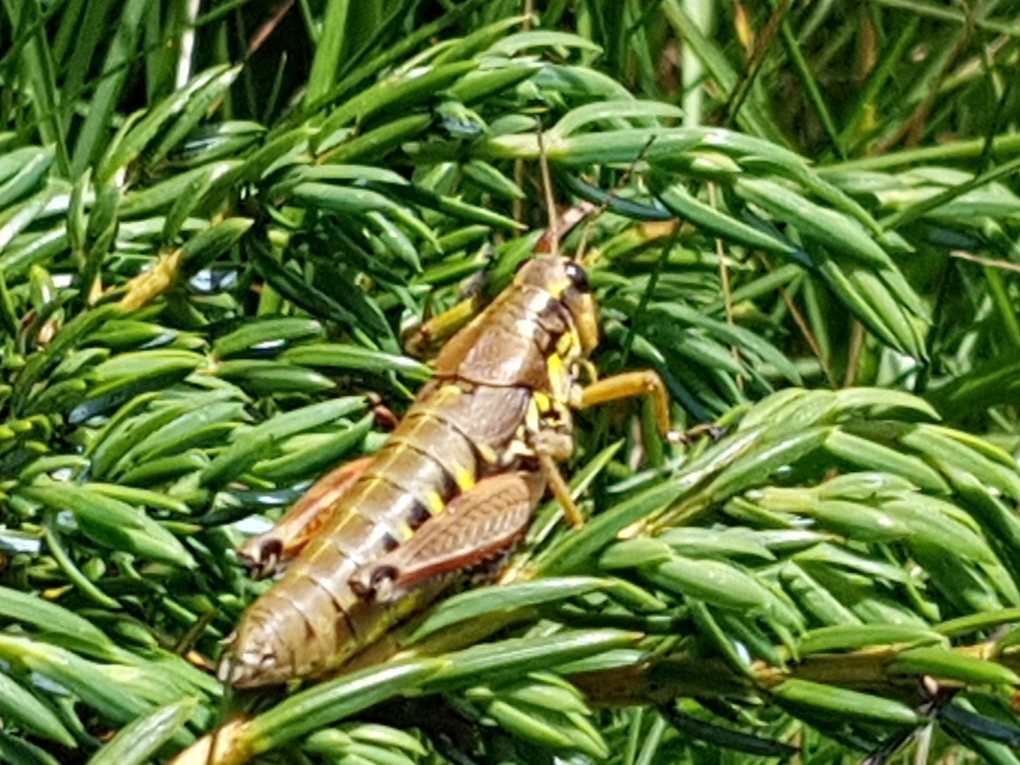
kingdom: Animalia
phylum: Arthropoda
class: Insecta
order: Orthoptera
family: Acrididae
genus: Podisma
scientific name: Podisma pedestris
